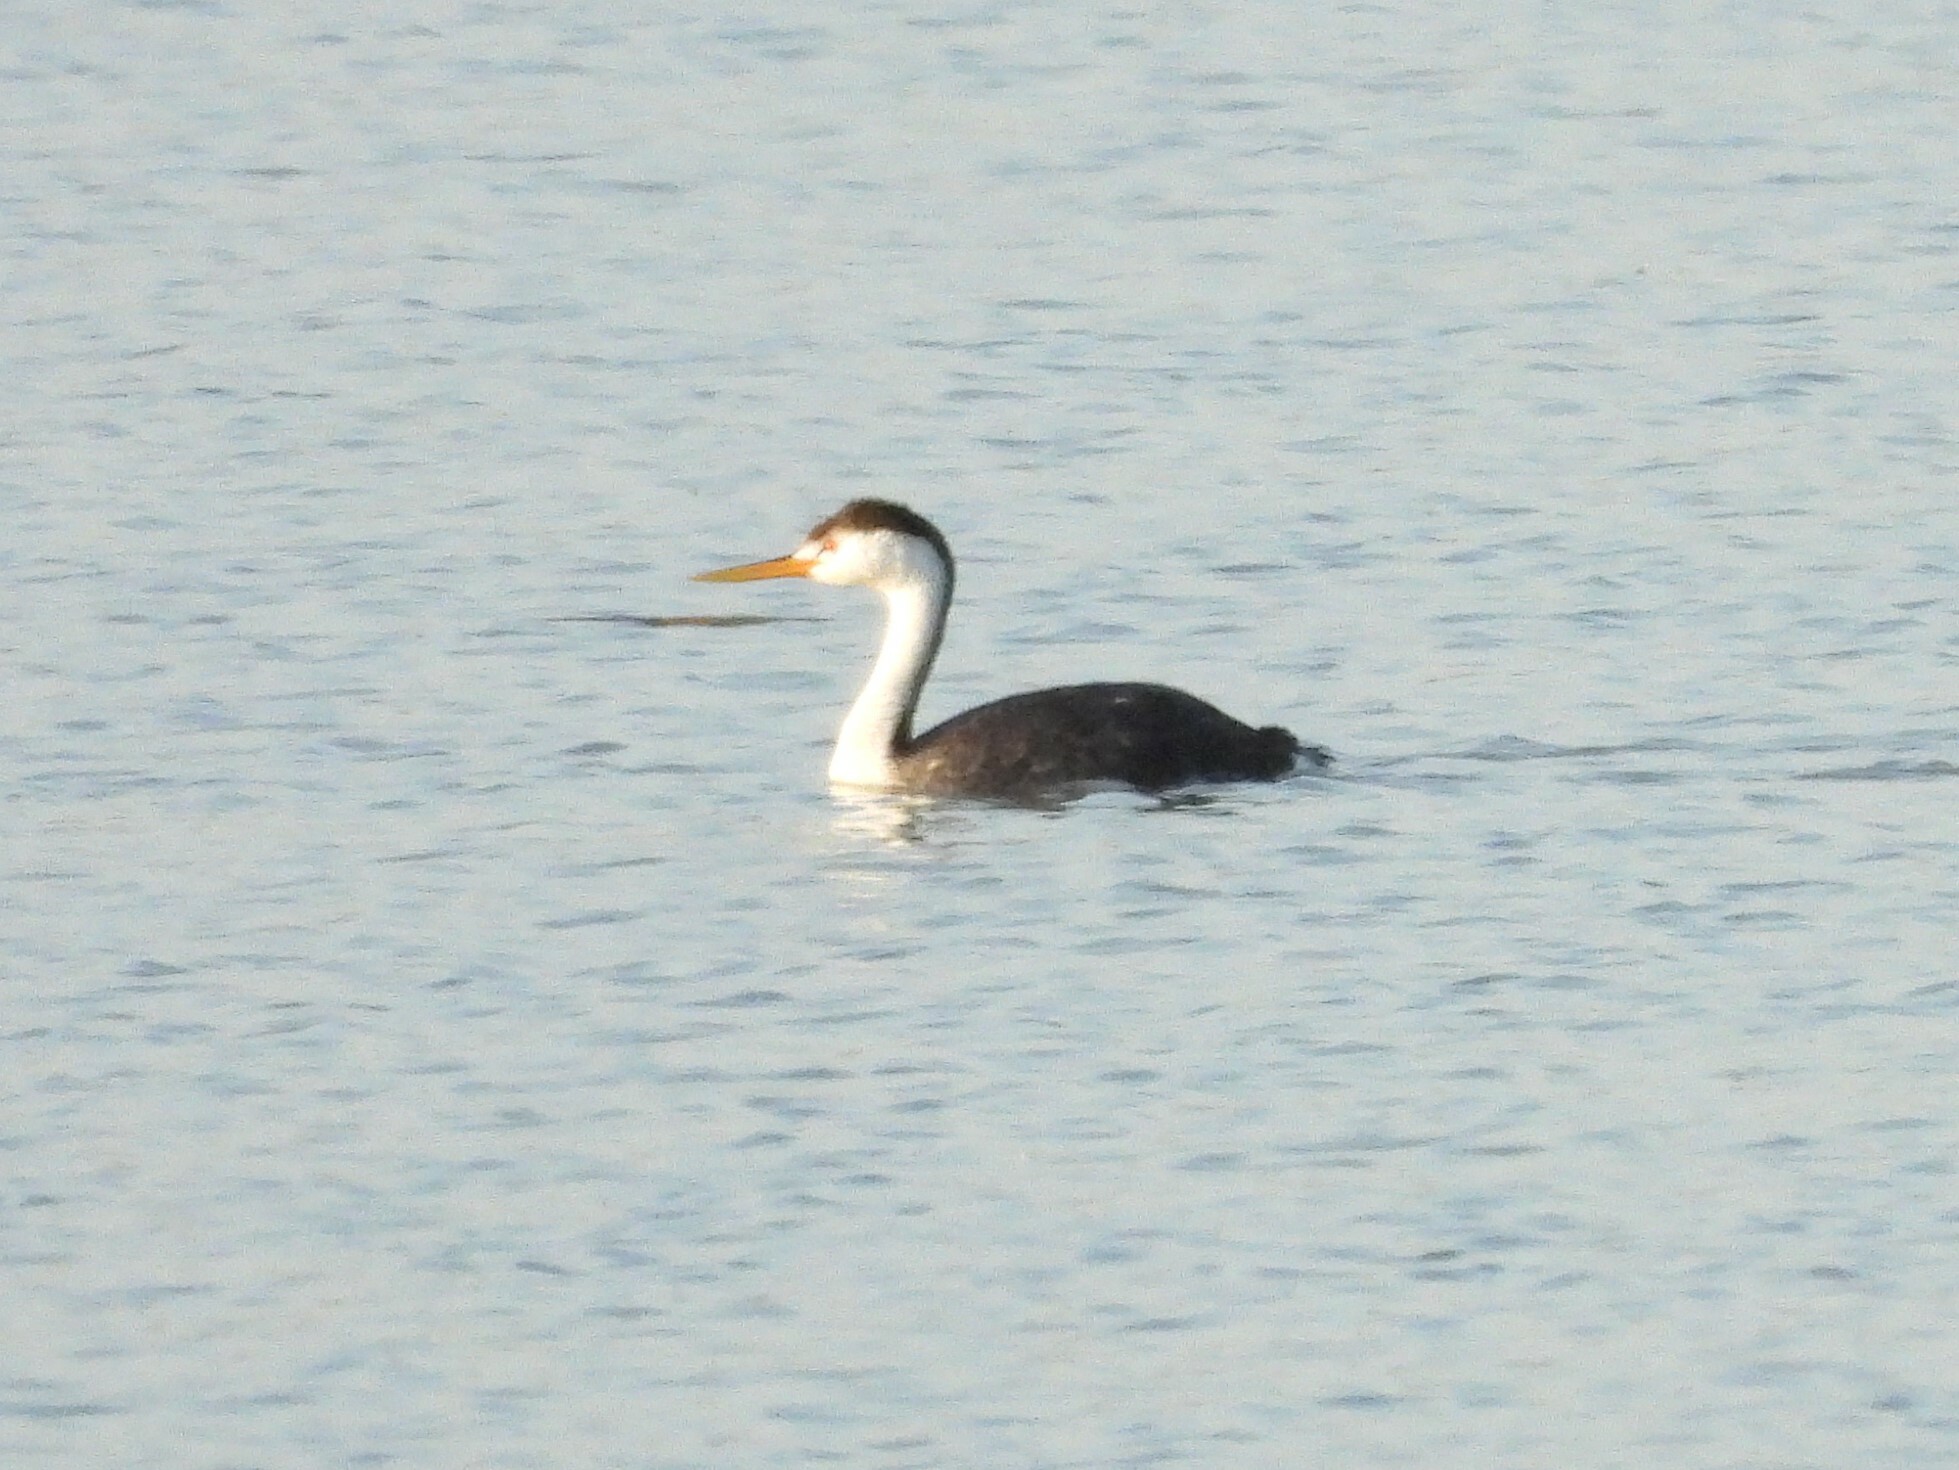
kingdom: Animalia
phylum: Chordata
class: Aves
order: Podicipediformes
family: Podicipedidae
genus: Aechmophorus
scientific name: Aechmophorus clarkii
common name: Clark's grebe
